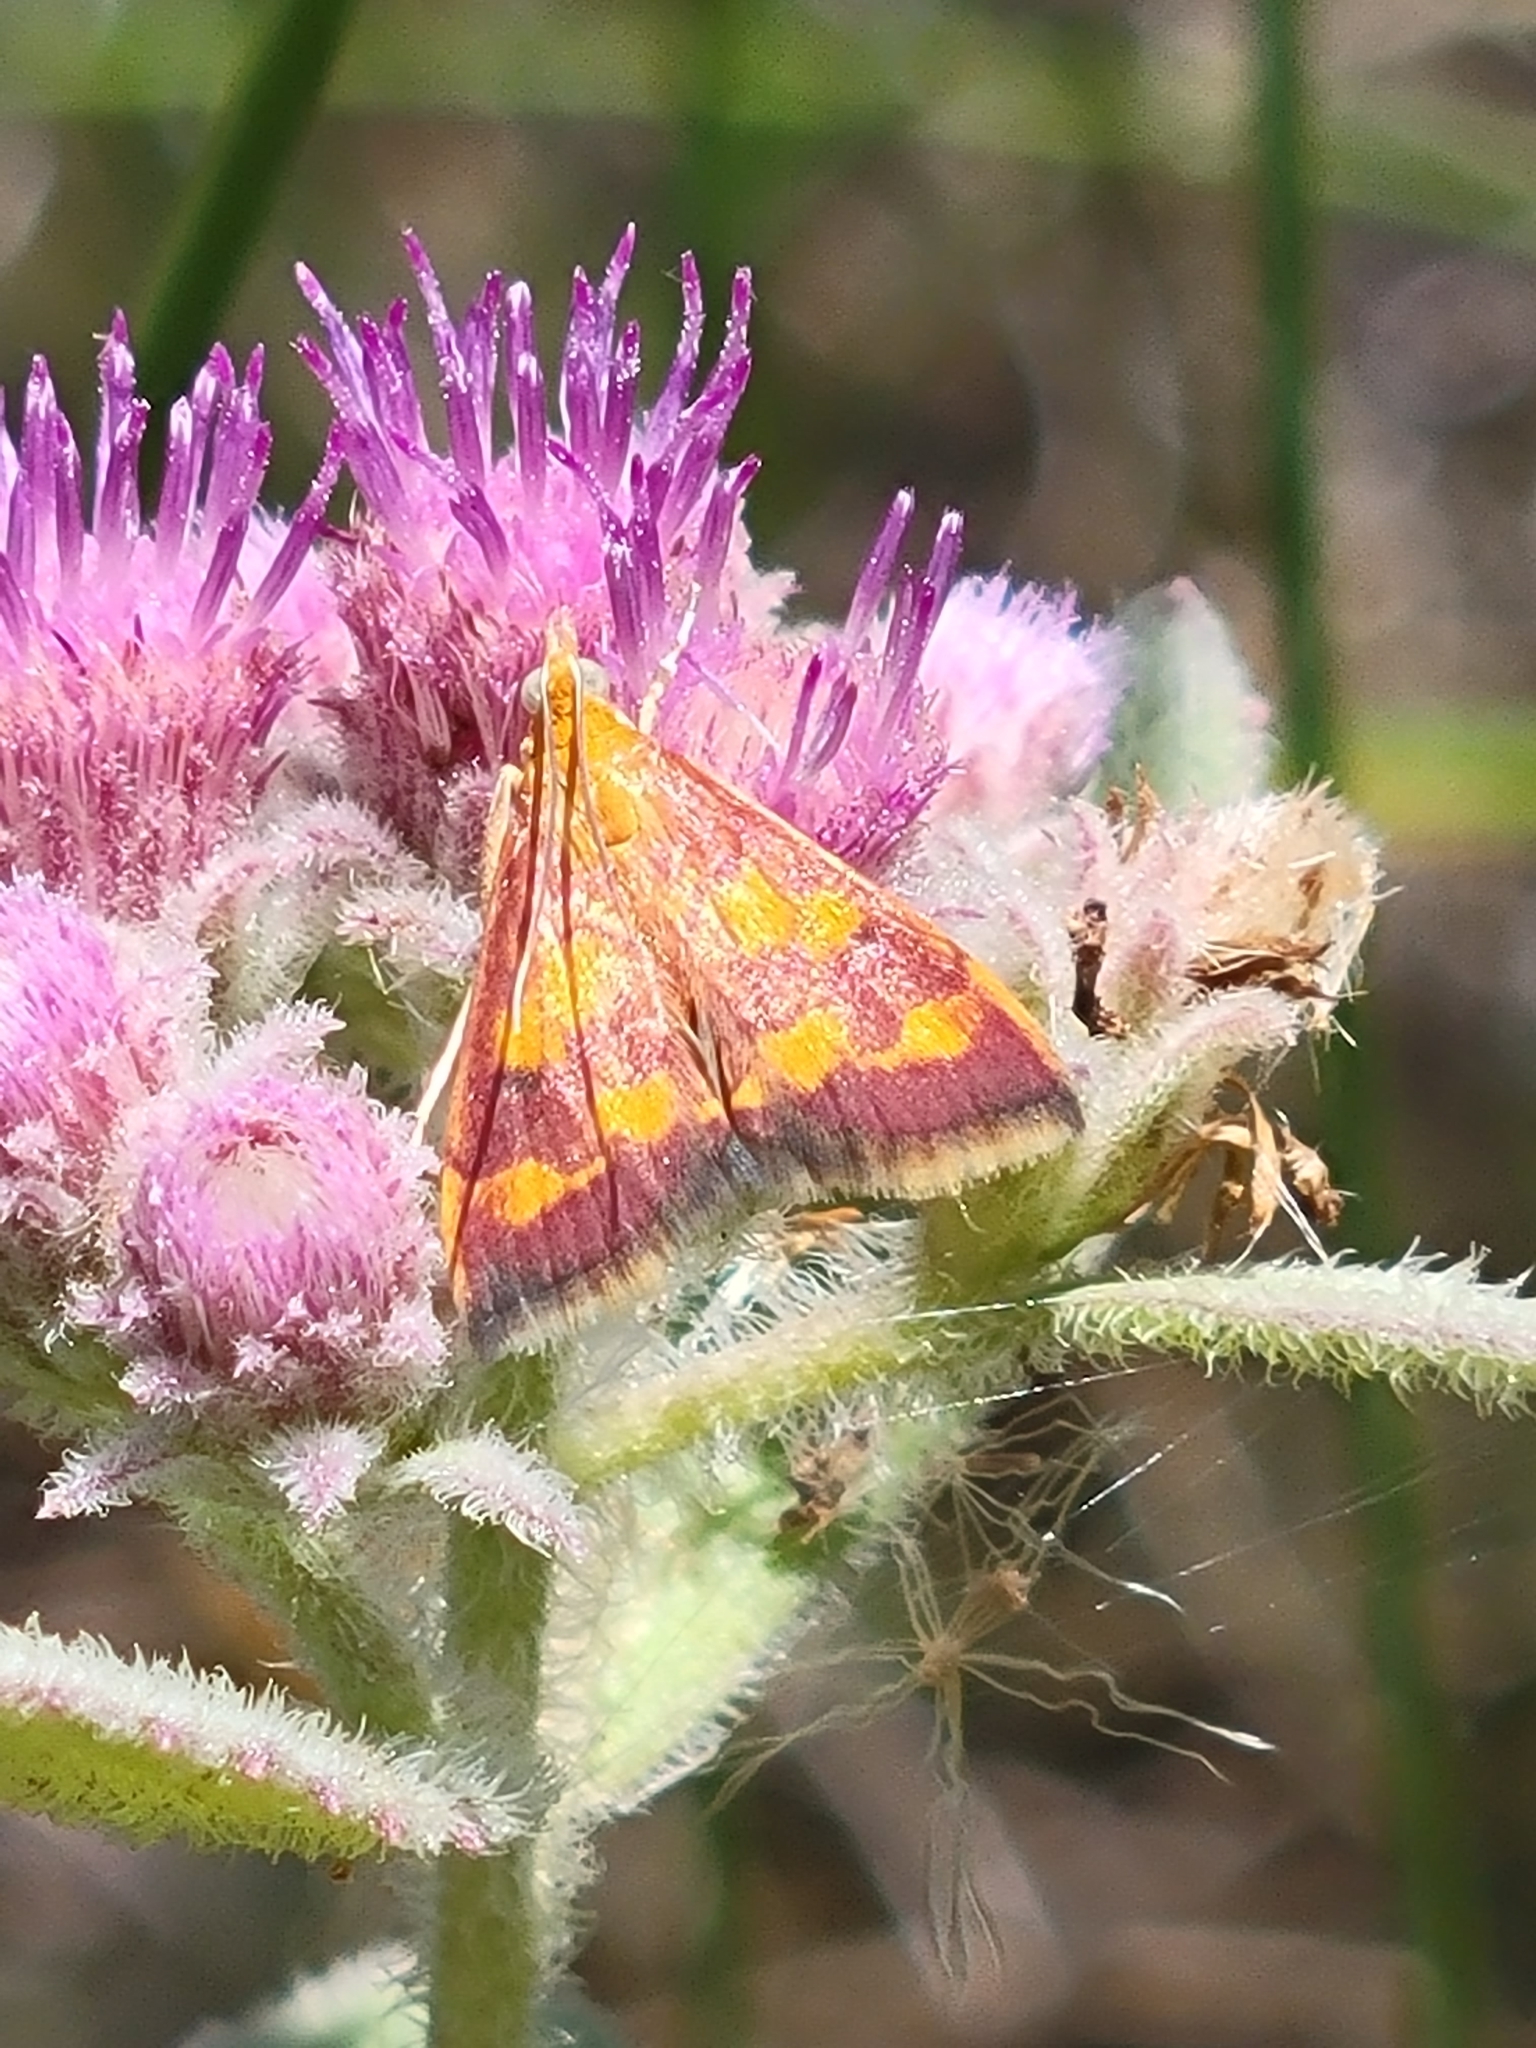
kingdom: Animalia
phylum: Arthropoda
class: Insecta
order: Lepidoptera
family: Crambidae
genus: Pyrausta
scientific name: Pyrausta phoenicealis
